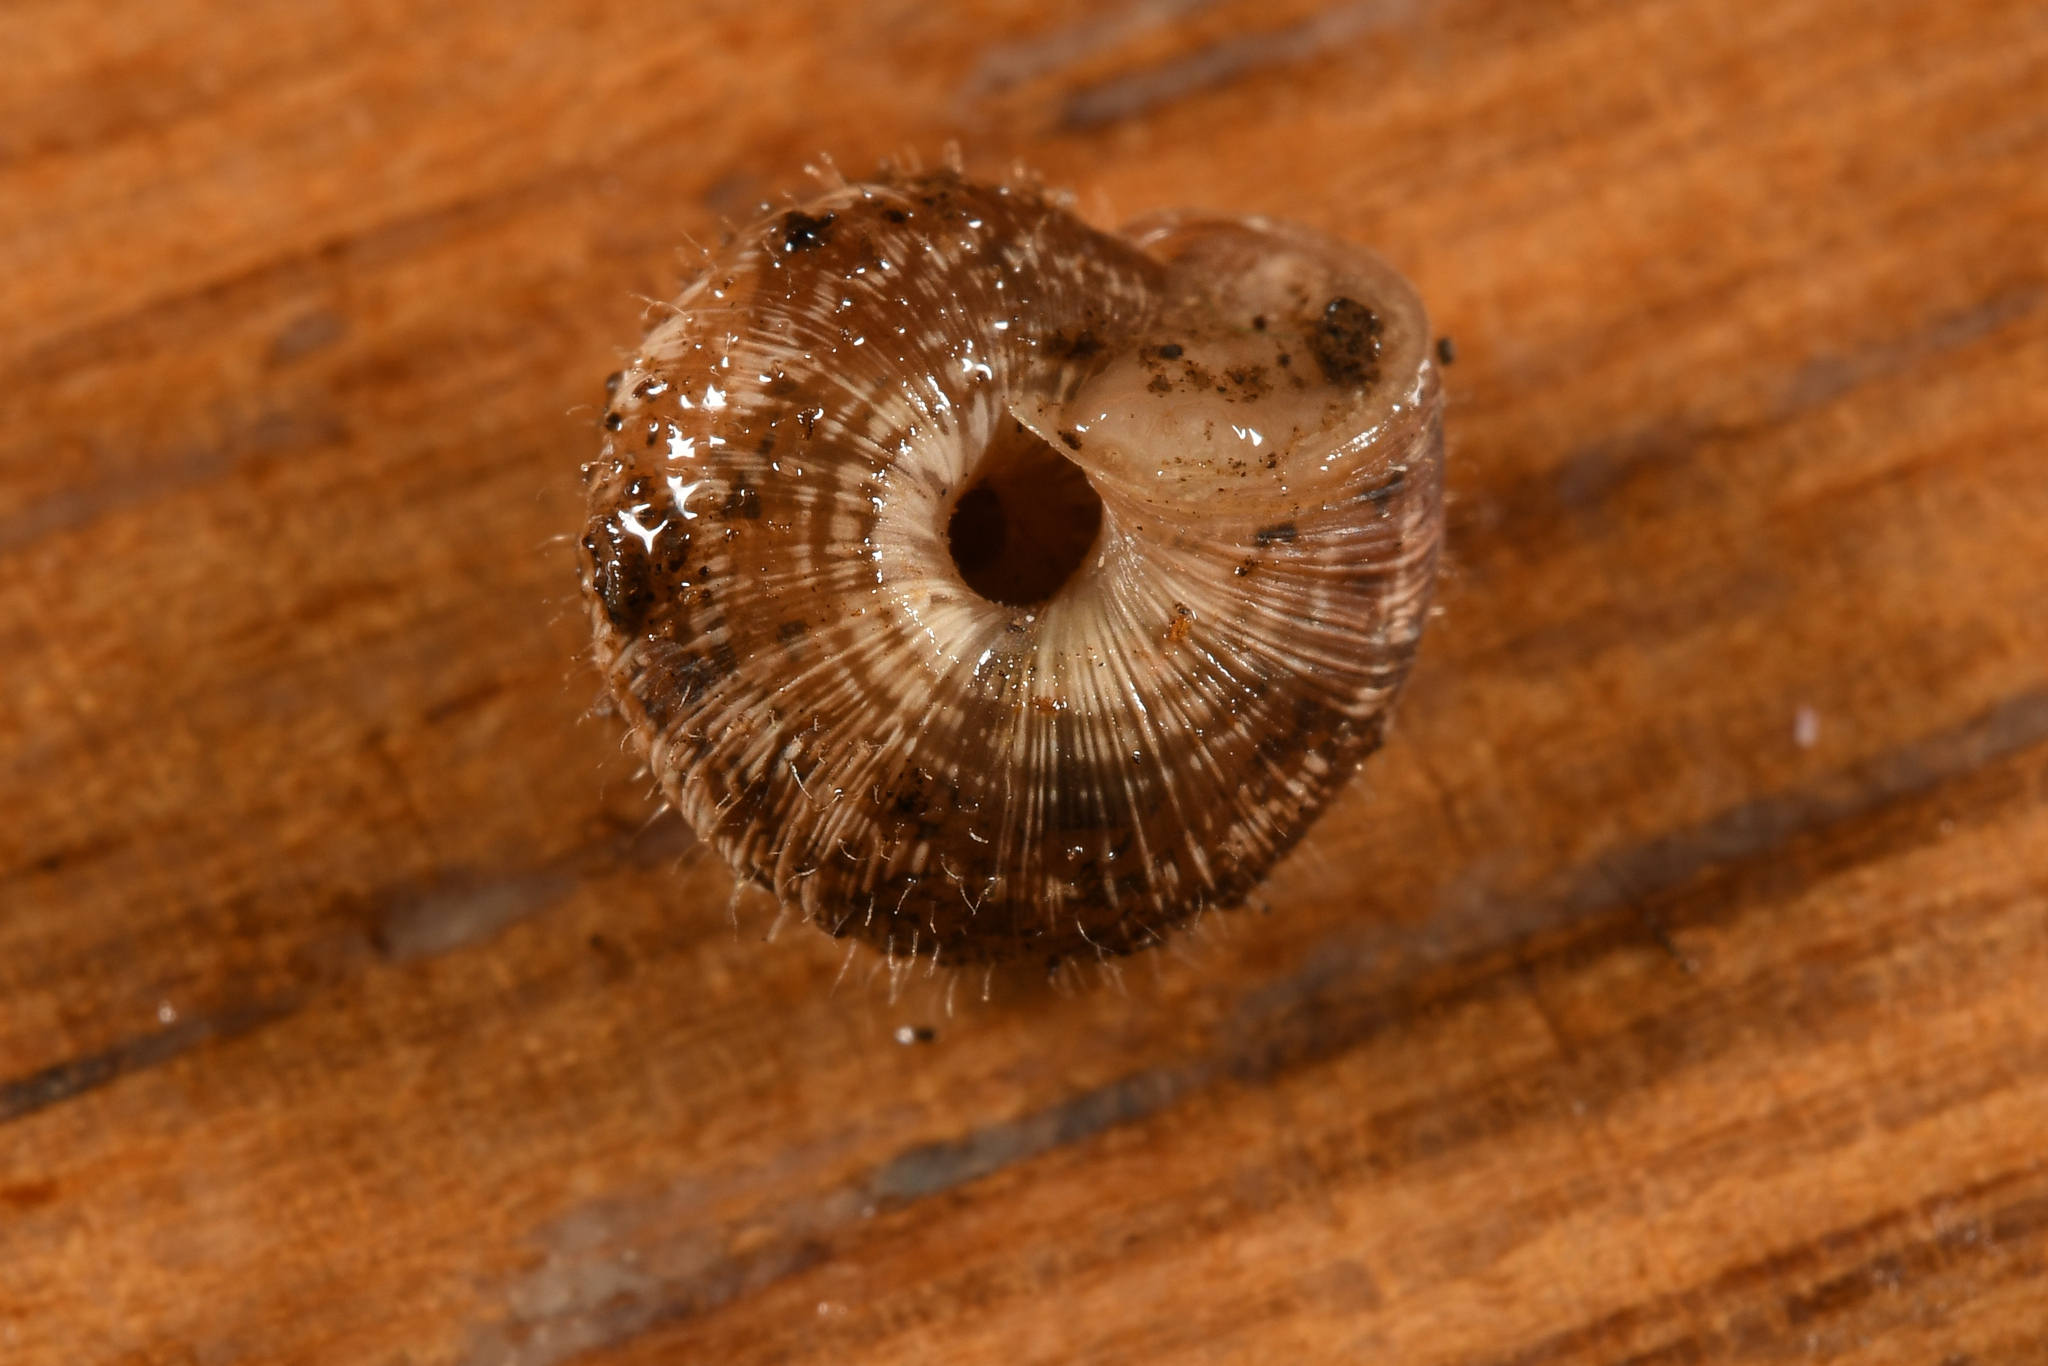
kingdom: Animalia
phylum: Mollusca
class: Gastropoda
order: Stylommatophora
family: Geomitridae
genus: Xerotricha
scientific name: Xerotricha conspurcata
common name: Snail
